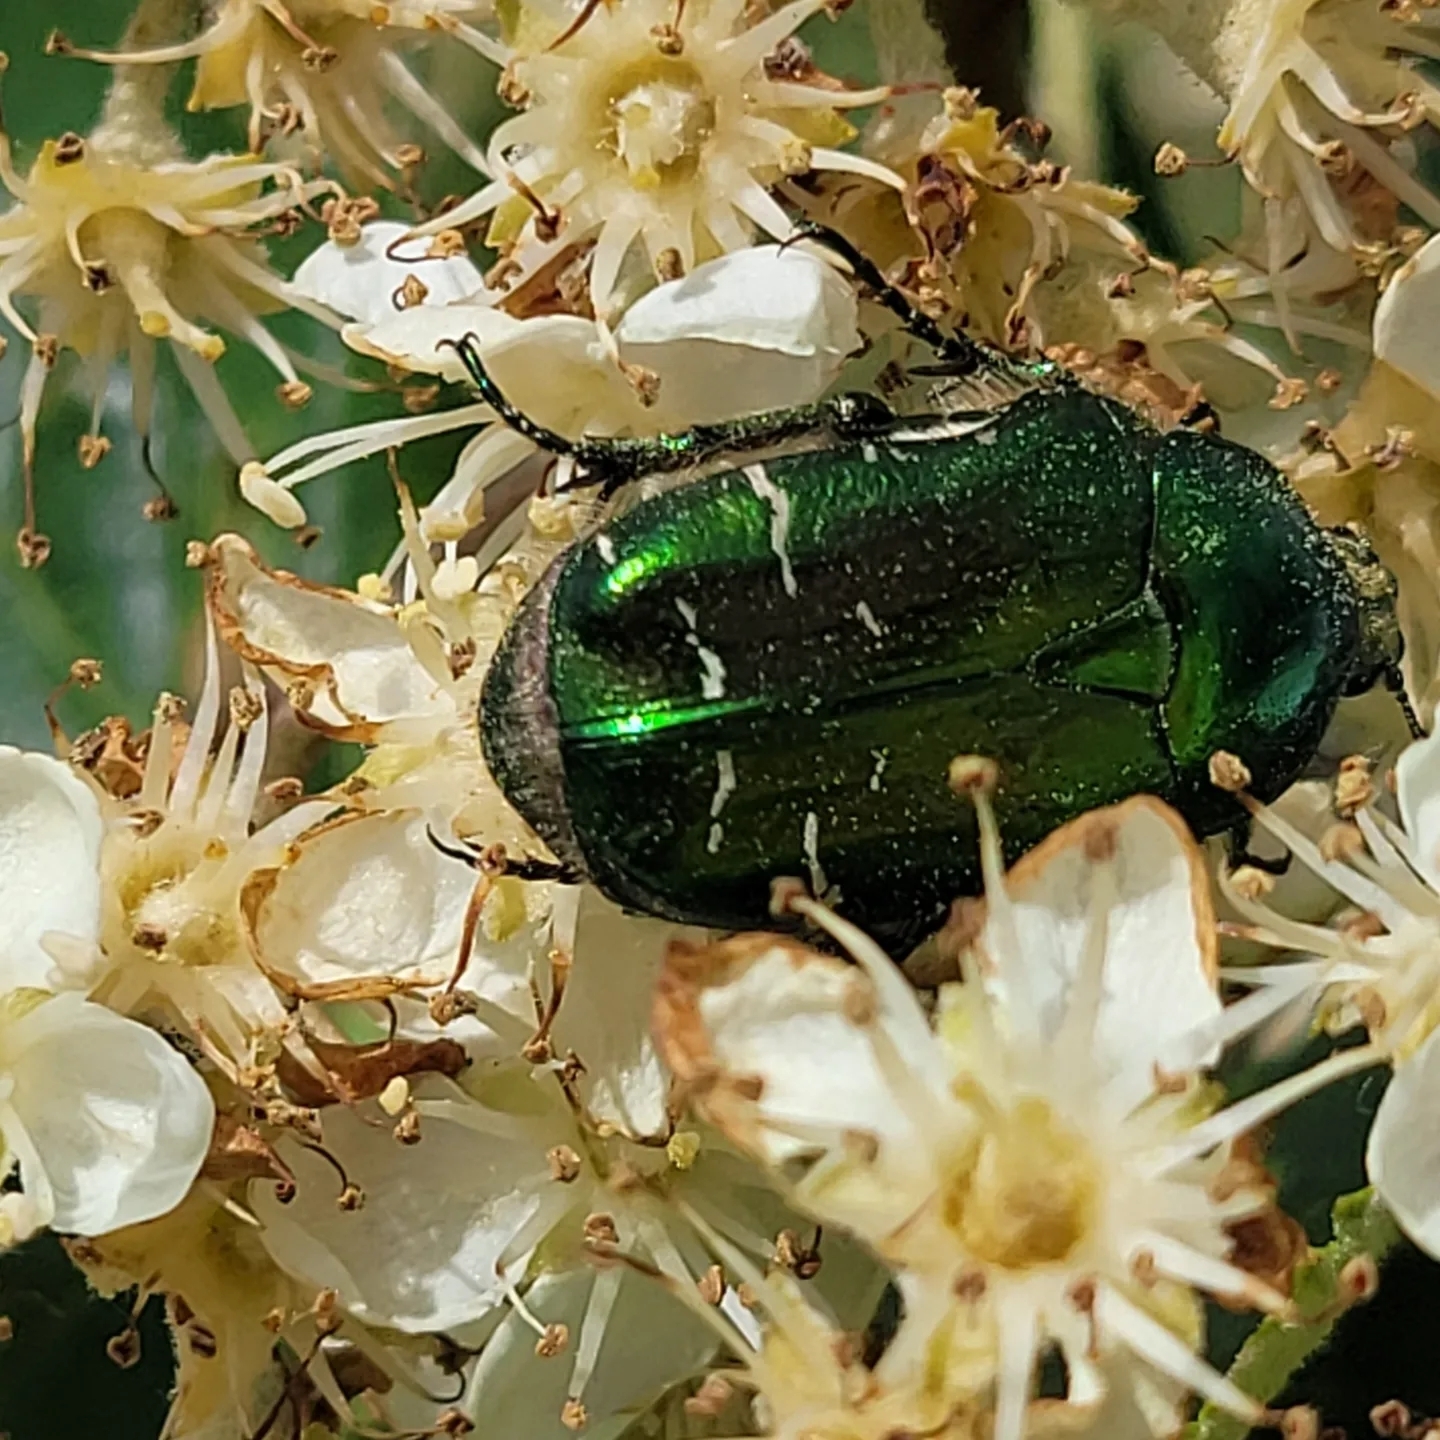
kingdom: Animalia
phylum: Arthropoda
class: Insecta
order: Coleoptera
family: Scarabaeidae
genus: Cetonia
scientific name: Cetonia aurata
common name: Rose chafer
